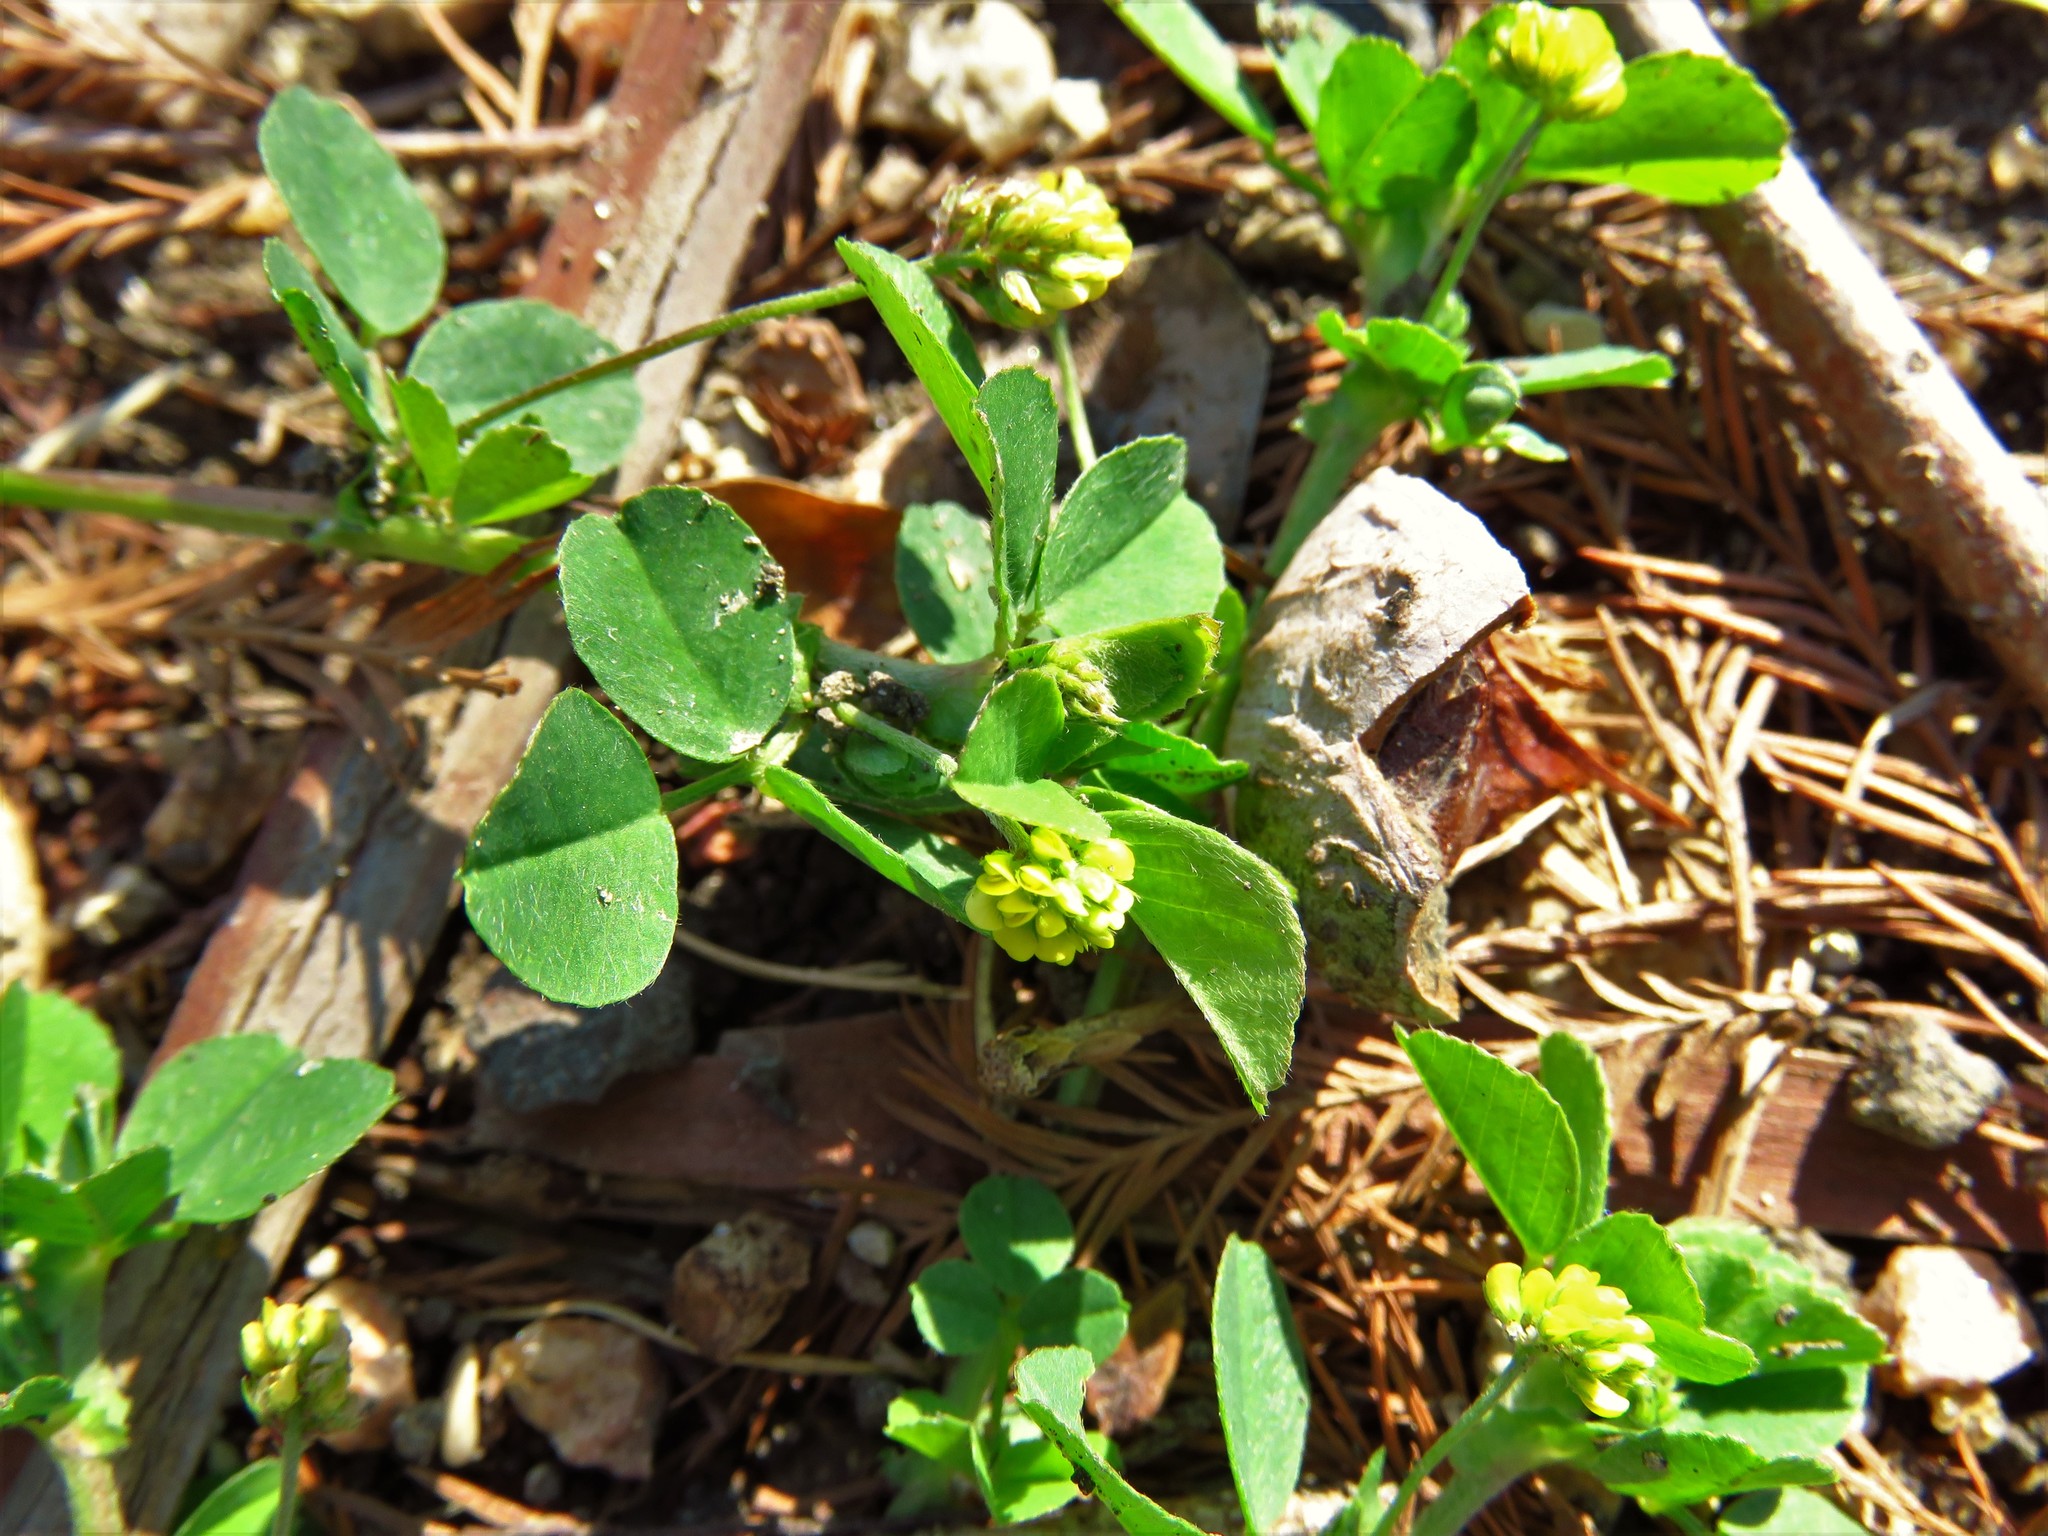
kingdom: Plantae
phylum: Tracheophyta
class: Magnoliopsida
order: Fabales
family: Fabaceae
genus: Medicago
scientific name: Medicago lupulina
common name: Black medick
